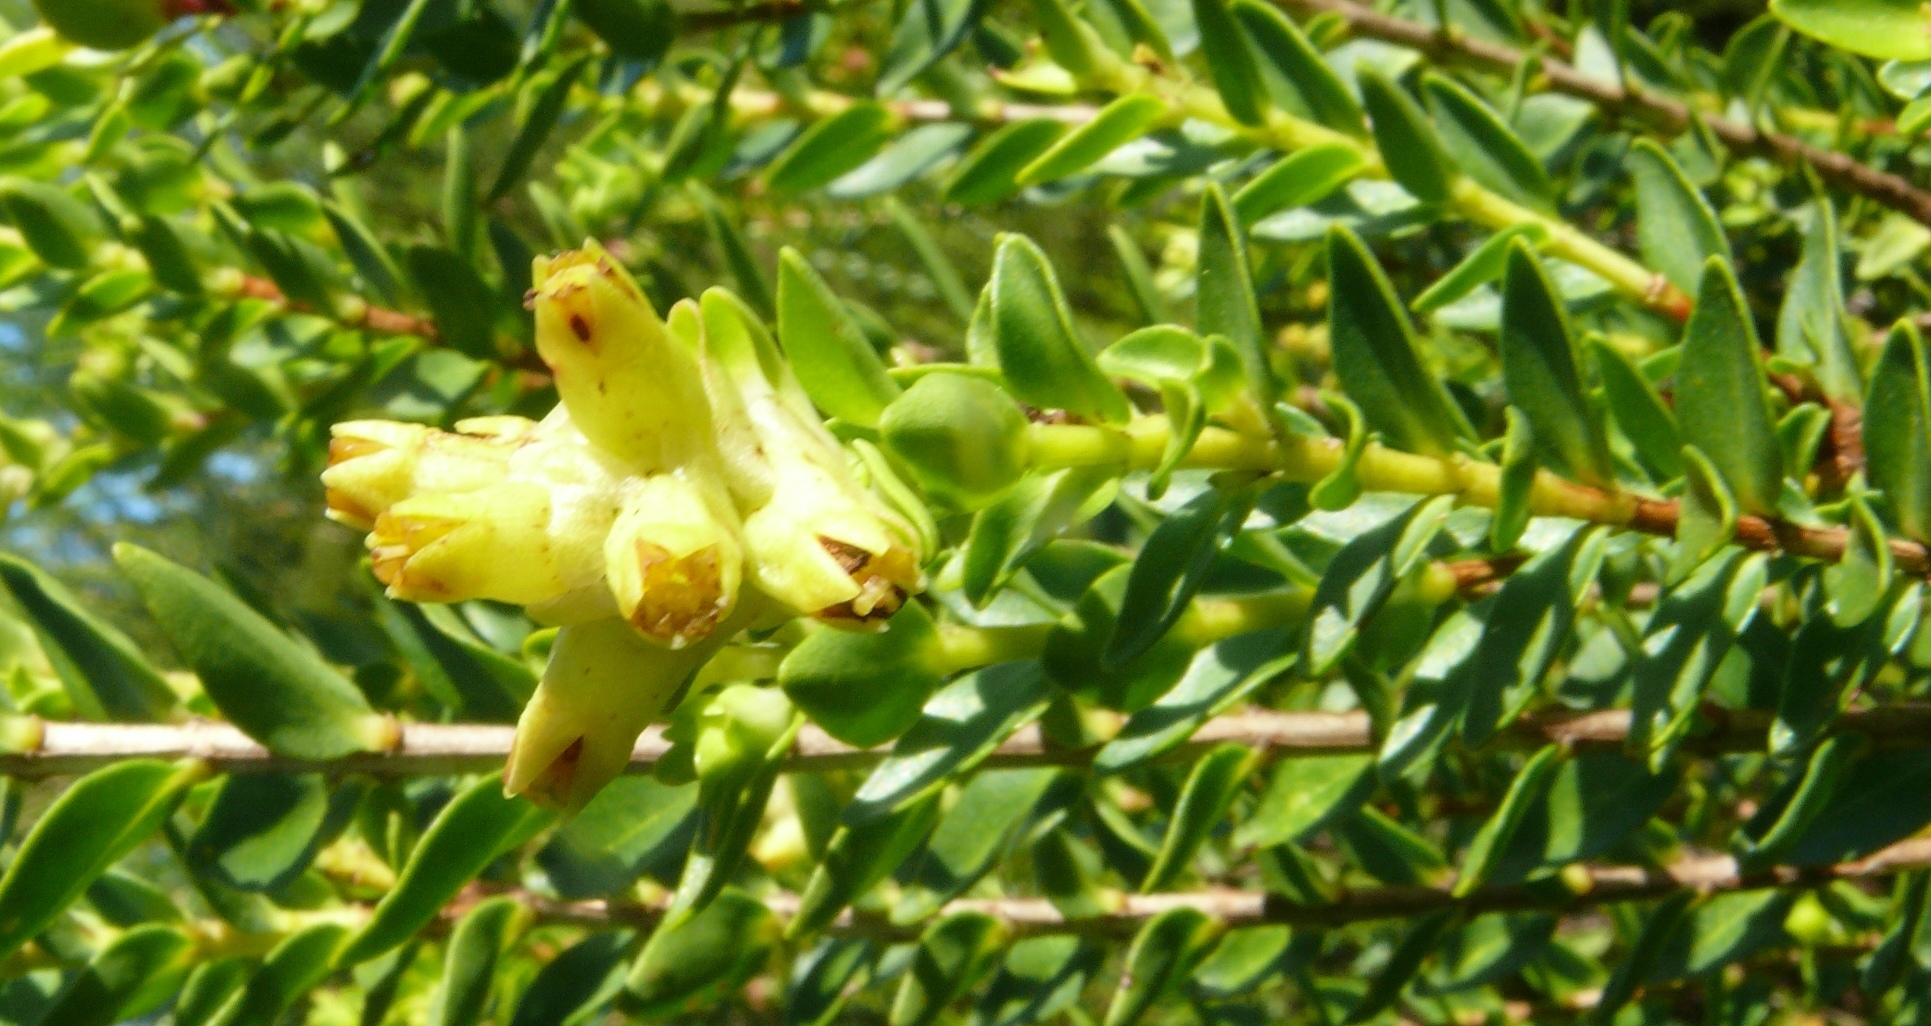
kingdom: Plantae
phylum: Tracheophyta
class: Magnoliopsida
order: Myrtales
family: Penaeaceae
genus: Penaea
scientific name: Penaea cneorum
